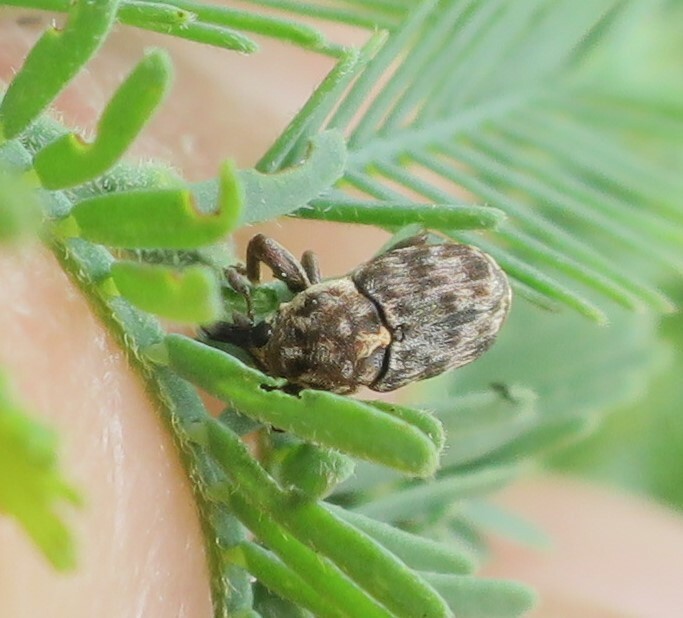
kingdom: Animalia
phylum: Arthropoda
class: Insecta
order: Coleoptera
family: Curculionidae
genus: Neolaemosaccus
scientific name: Neolaemosaccus narinus
